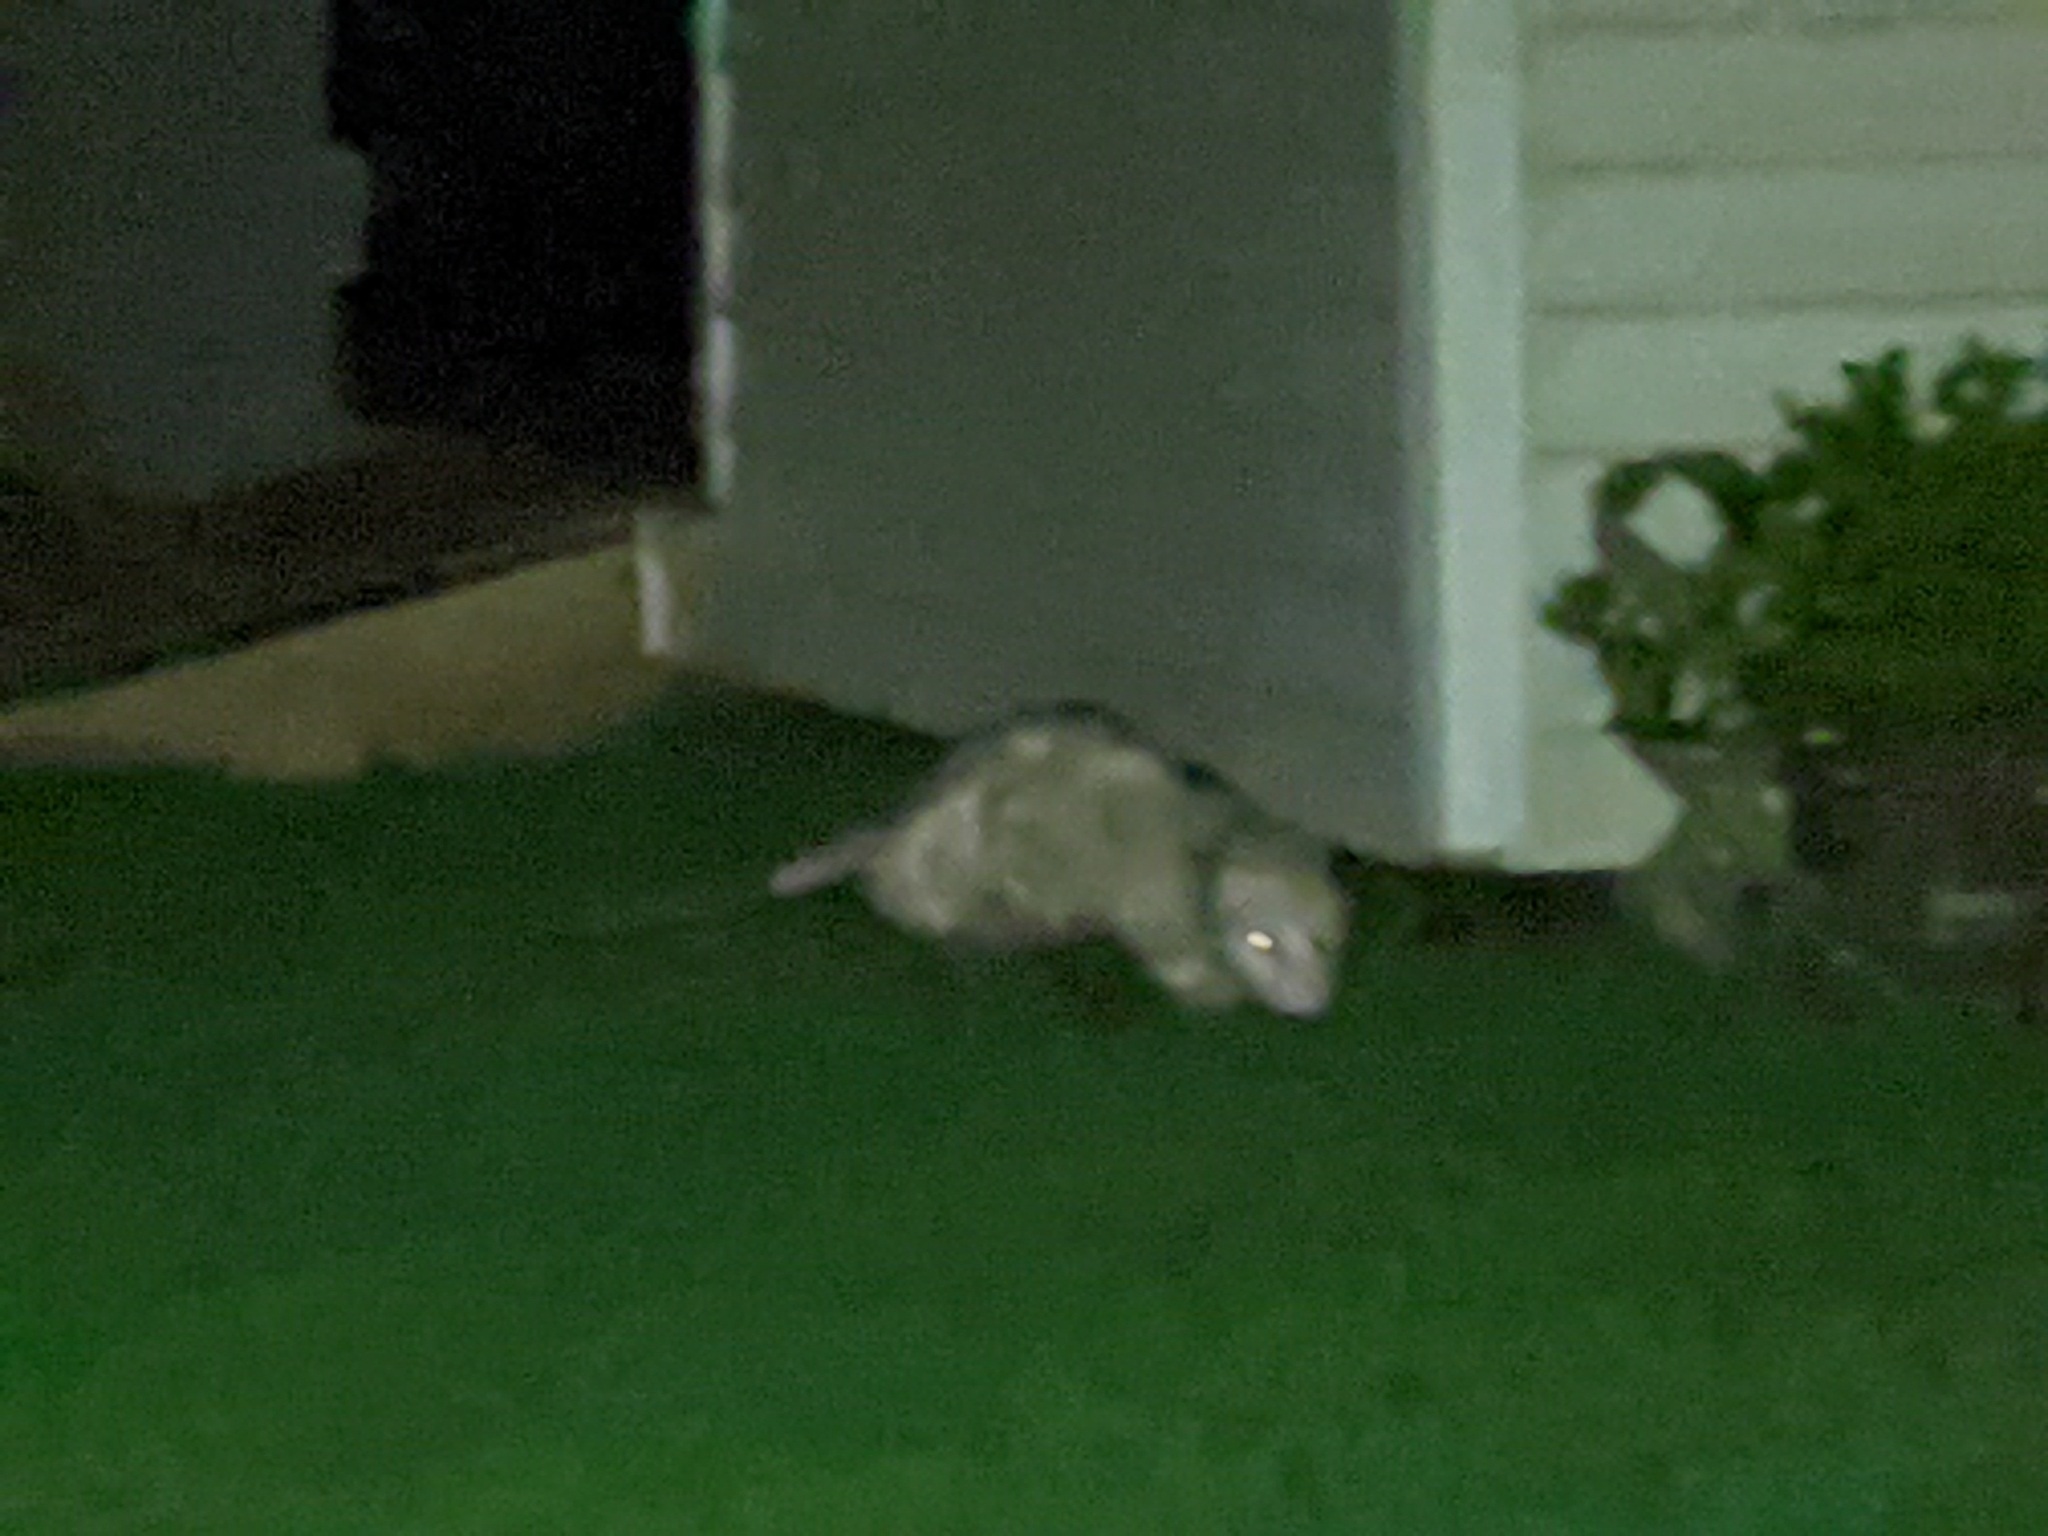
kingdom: Animalia
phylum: Chordata
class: Mammalia
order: Didelphimorphia
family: Didelphidae
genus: Didelphis
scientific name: Didelphis virginiana
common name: Virginia opossum
